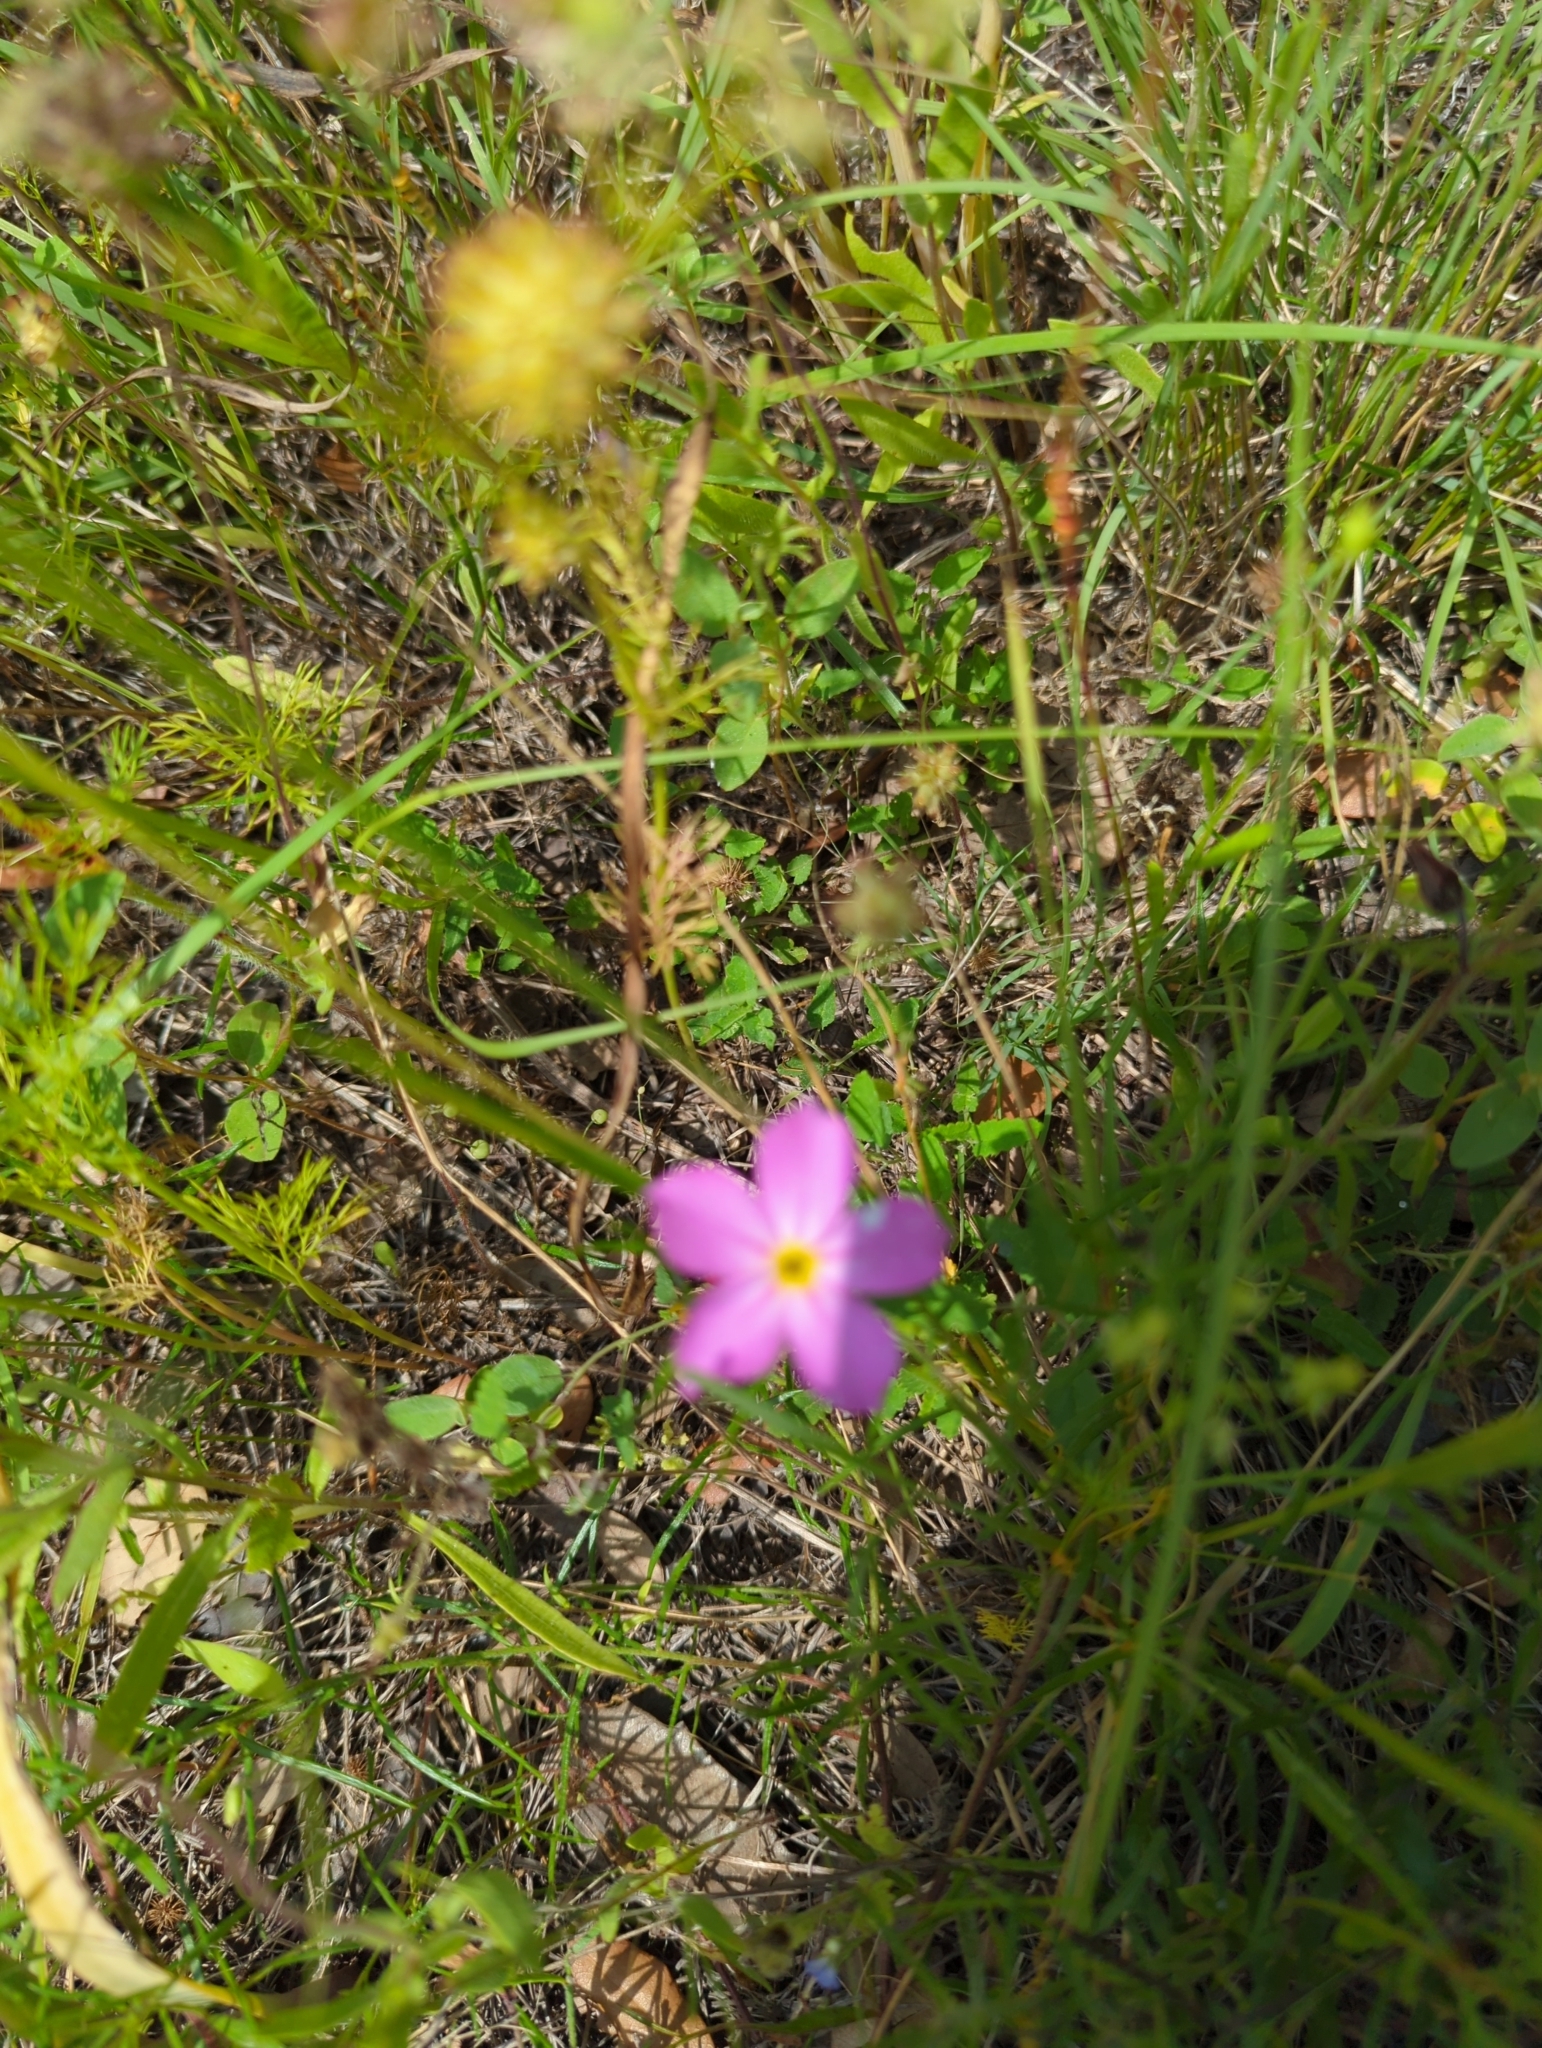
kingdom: Plantae
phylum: Tracheophyta
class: Magnoliopsida
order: Ericales
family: Polemoniaceae
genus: Phlox
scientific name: Phlox roemeriana
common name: Roemer's phlox
